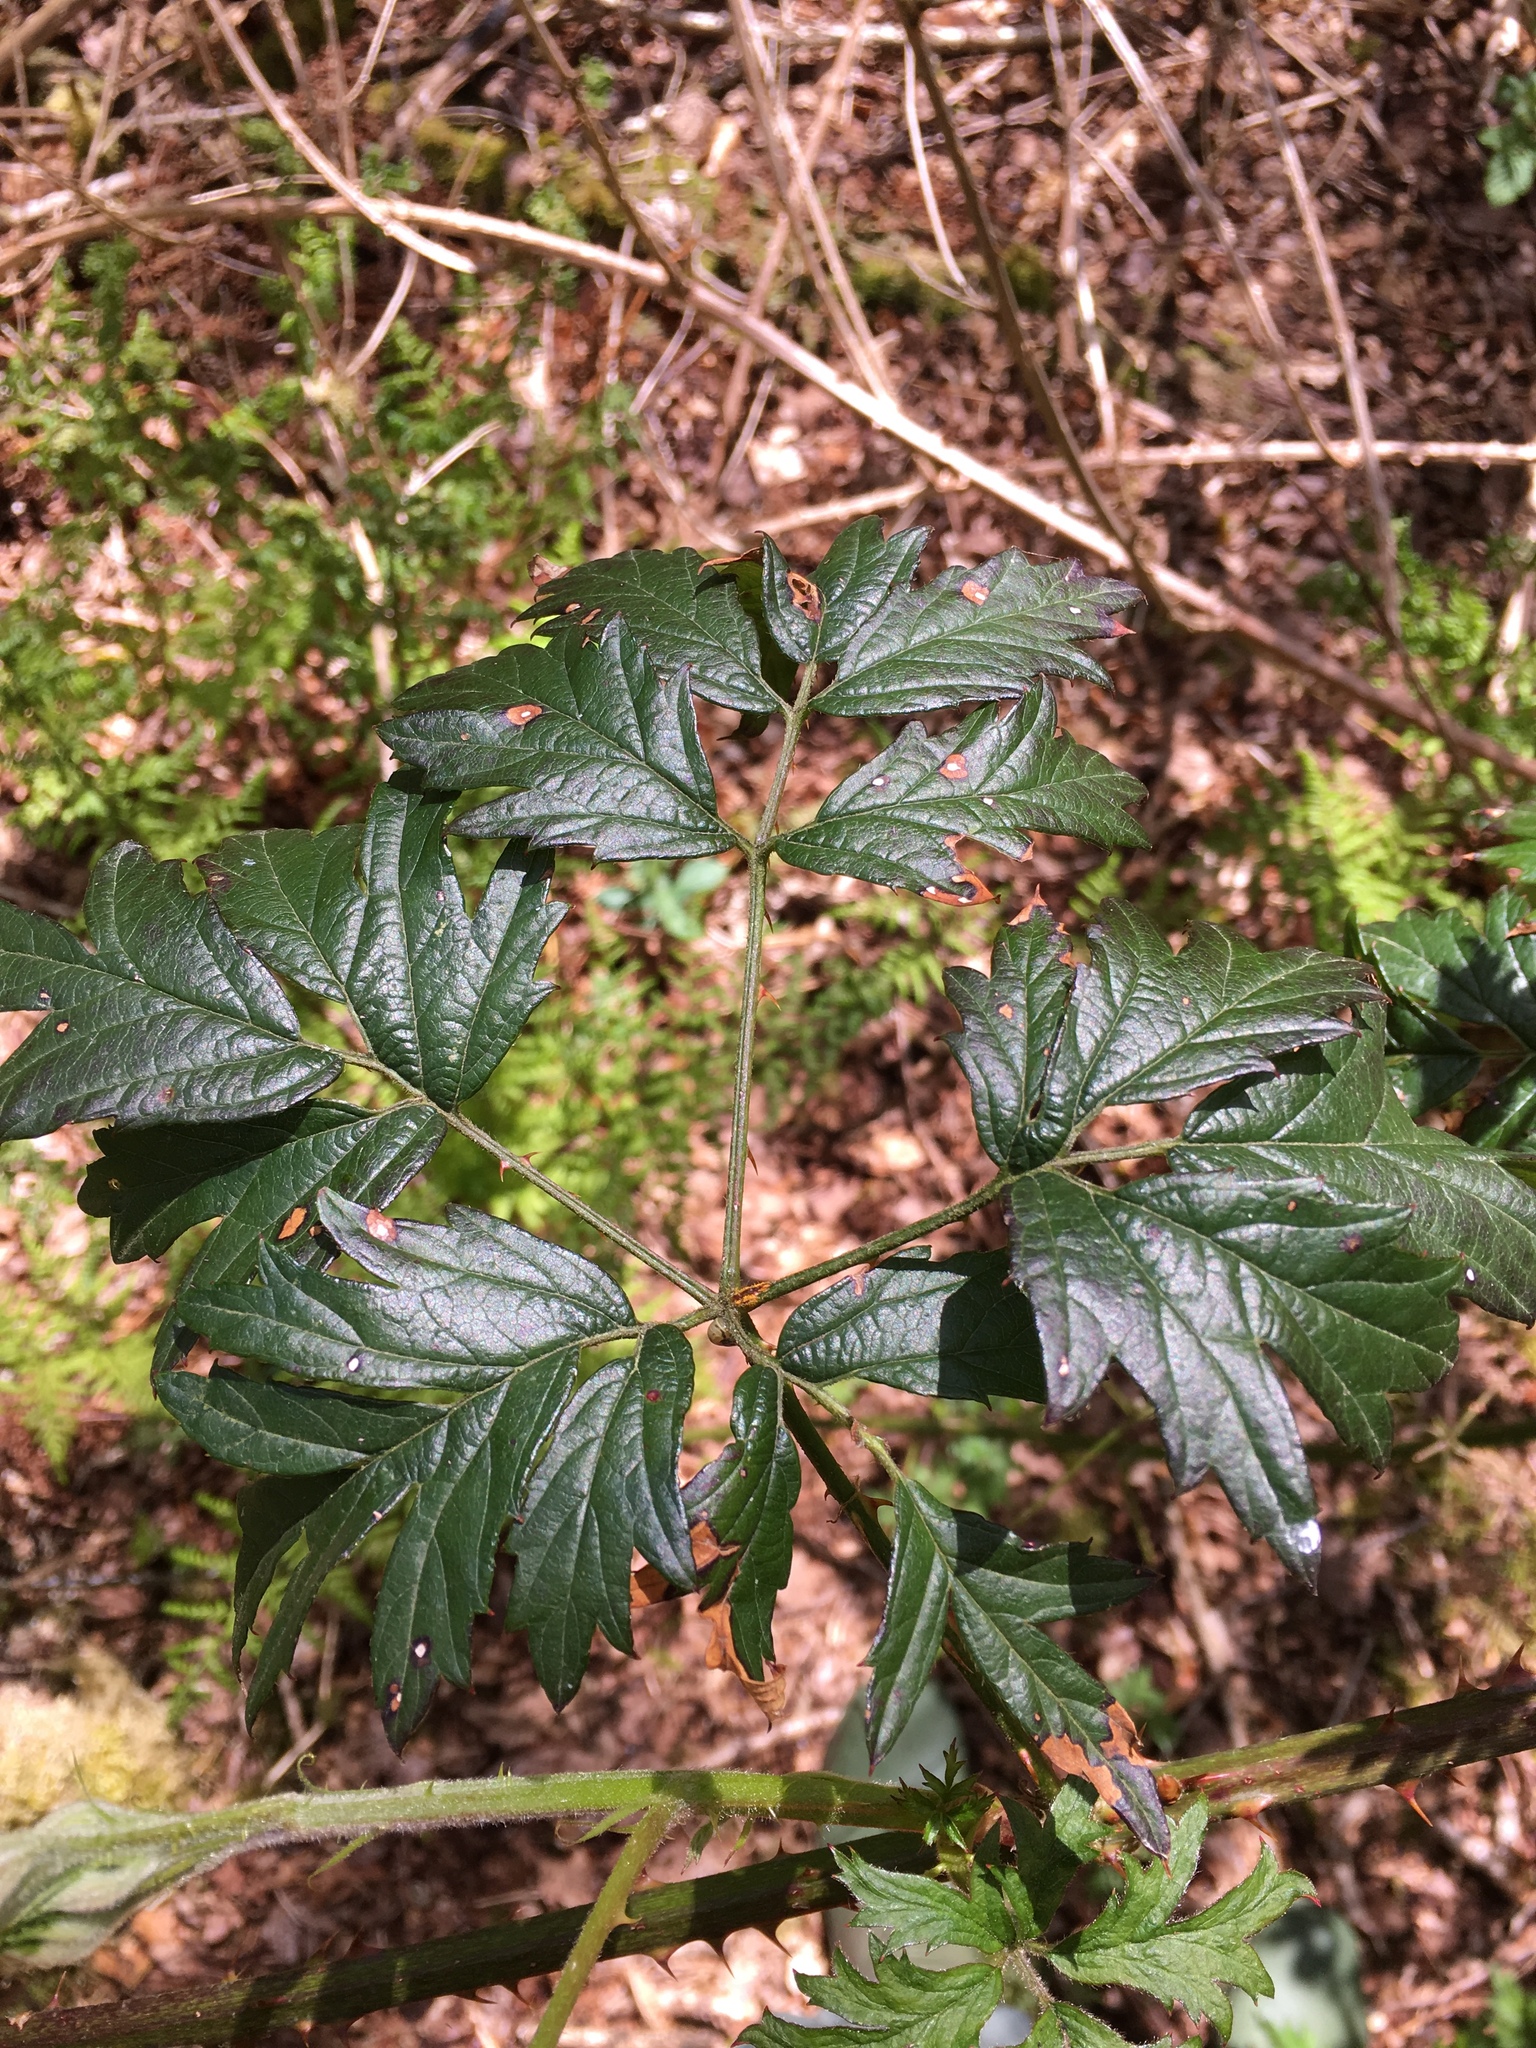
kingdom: Plantae
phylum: Tracheophyta
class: Magnoliopsida
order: Rosales
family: Rosaceae
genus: Rubus
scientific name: Rubus laciniatus
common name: Evergreen blackberry
